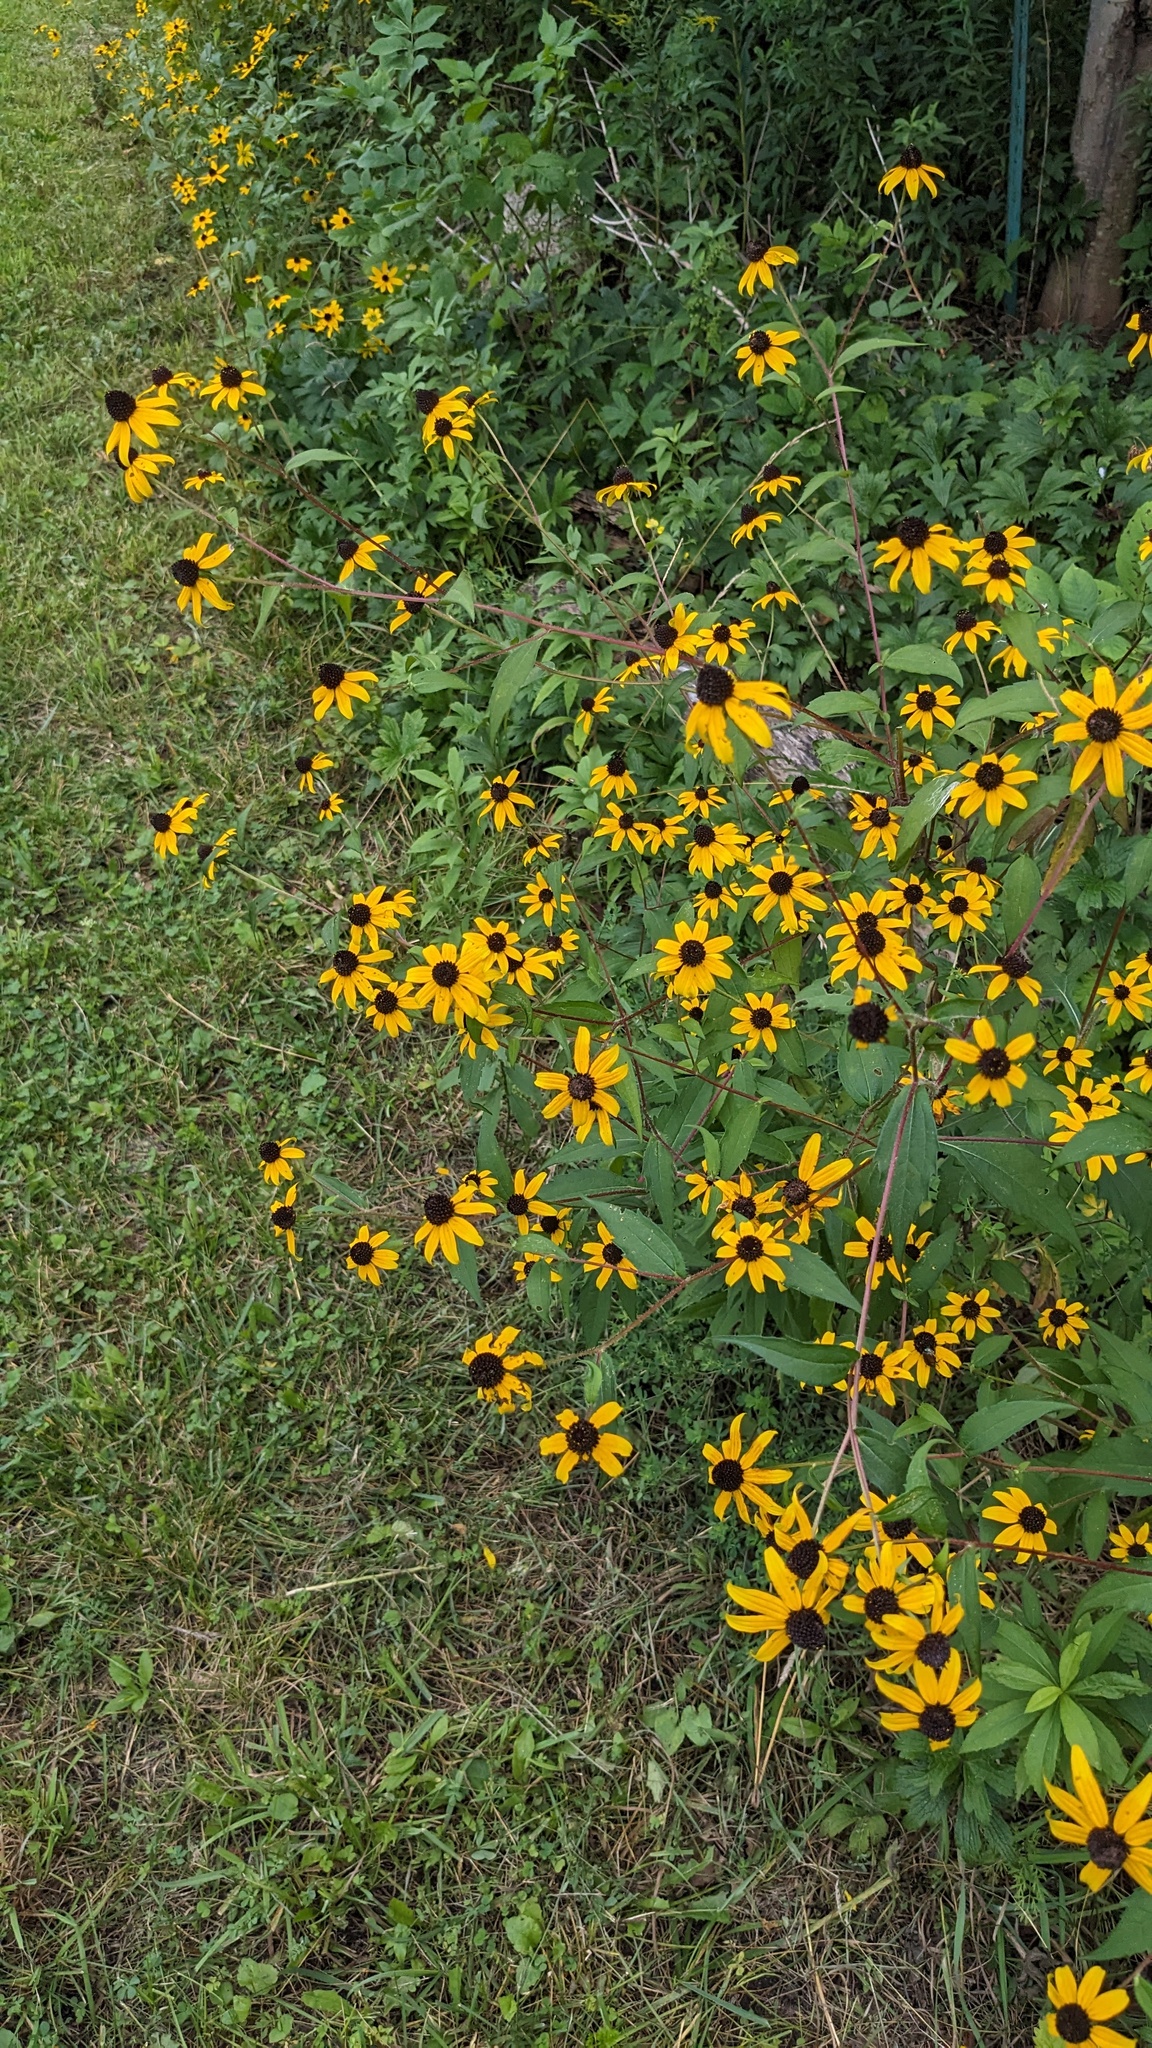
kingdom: Plantae
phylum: Tracheophyta
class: Magnoliopsida
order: Asterales
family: Asteraceae
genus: Rudbeckia
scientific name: Rudbeckia triloba
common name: Thin-leaved coneflower
